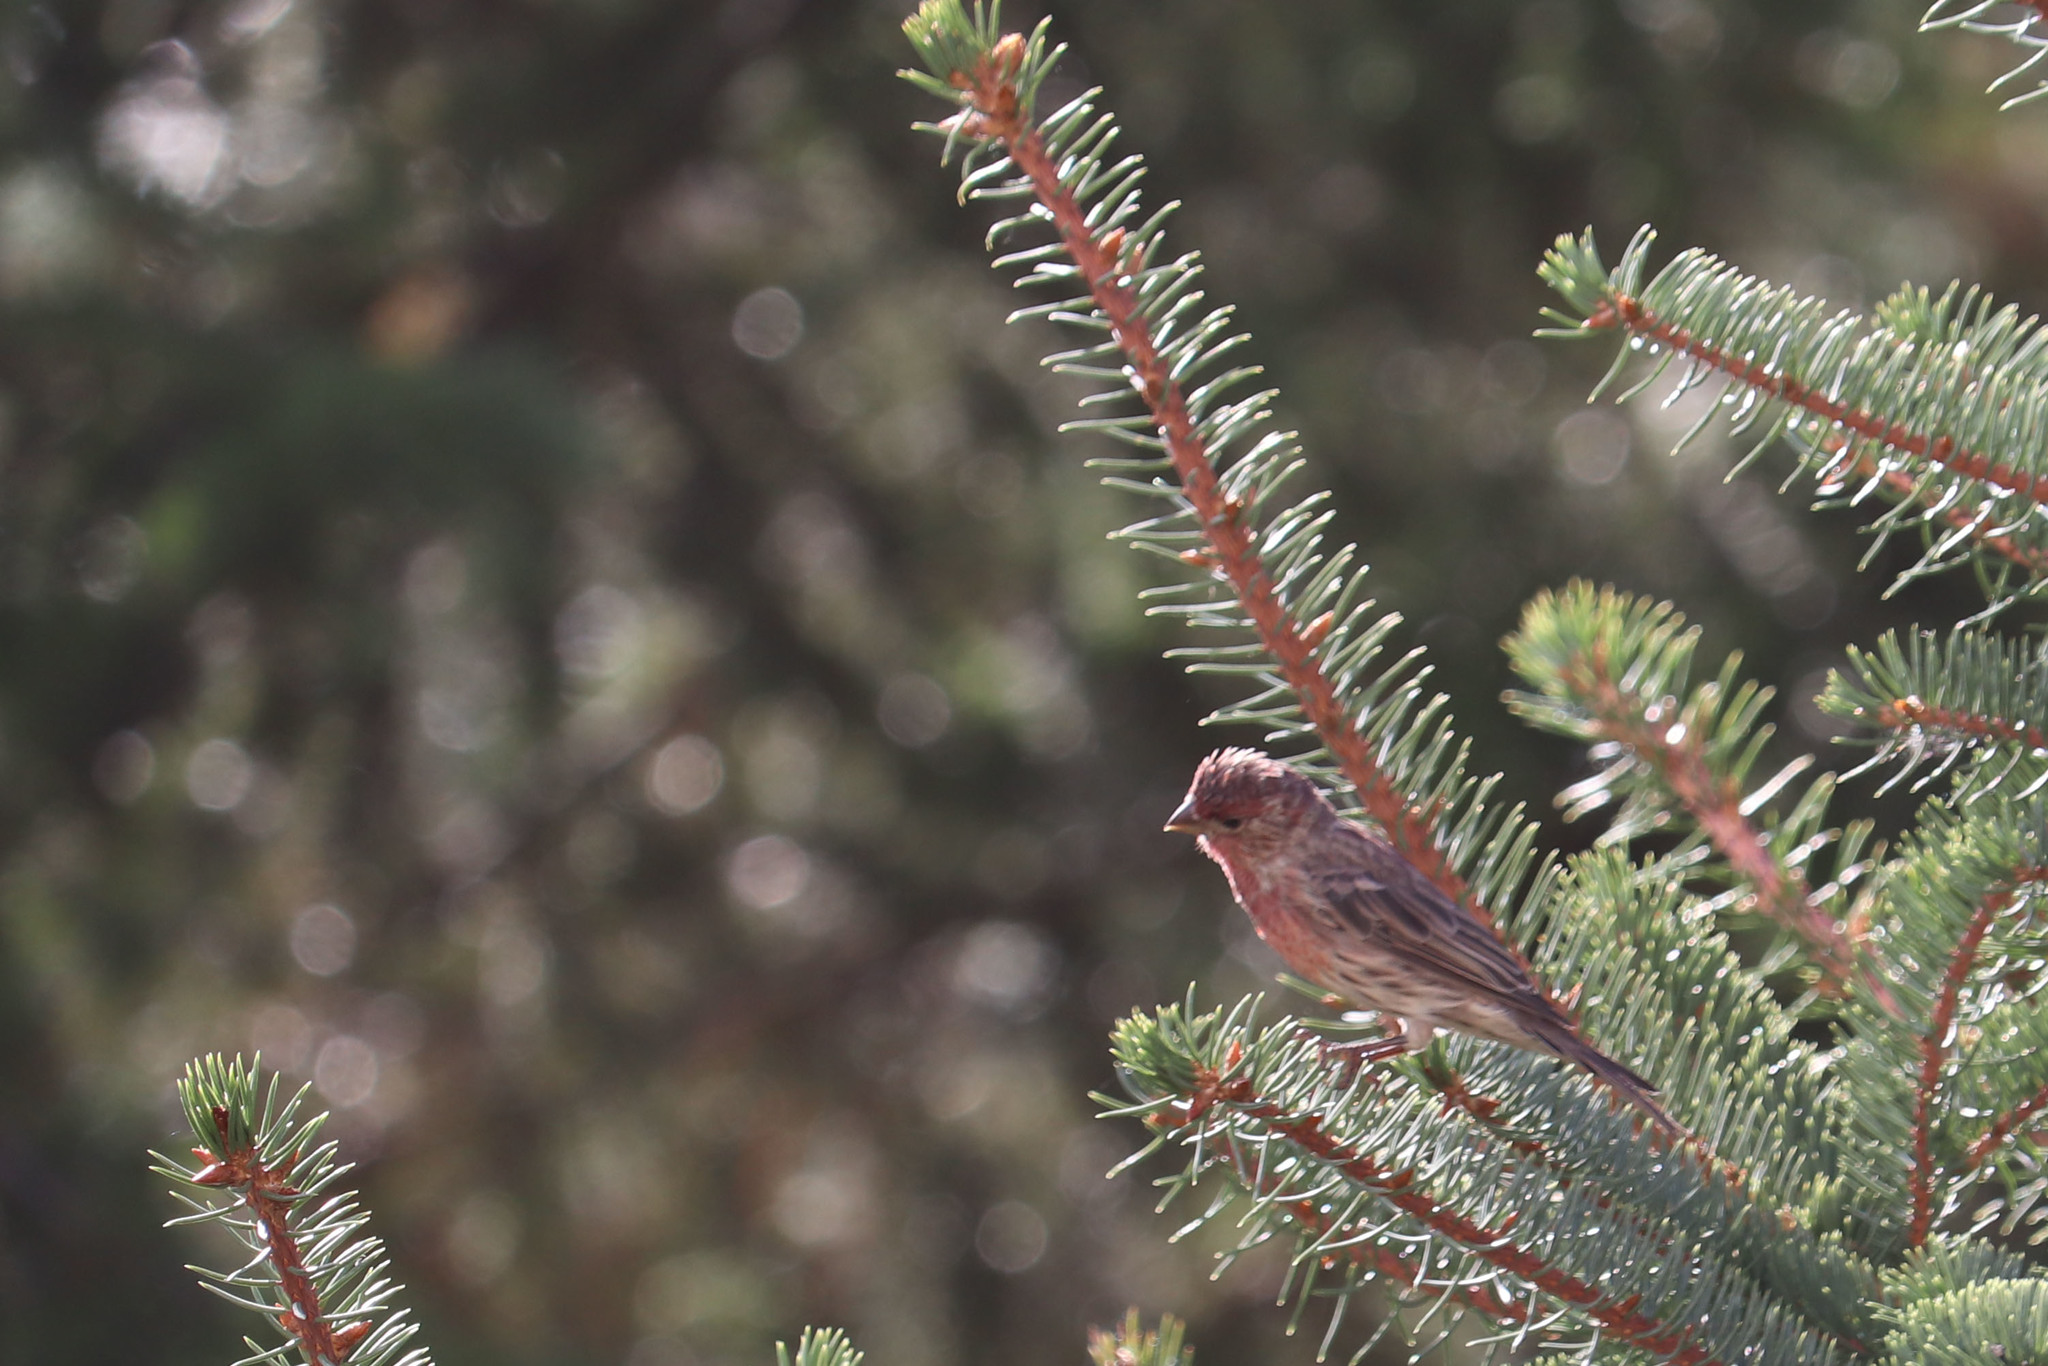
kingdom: Animalia
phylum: Chordata
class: Aves
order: Passeriformes
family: Fringillidae
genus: Haemorhous
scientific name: Haemorhous mexicanus
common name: House finch
